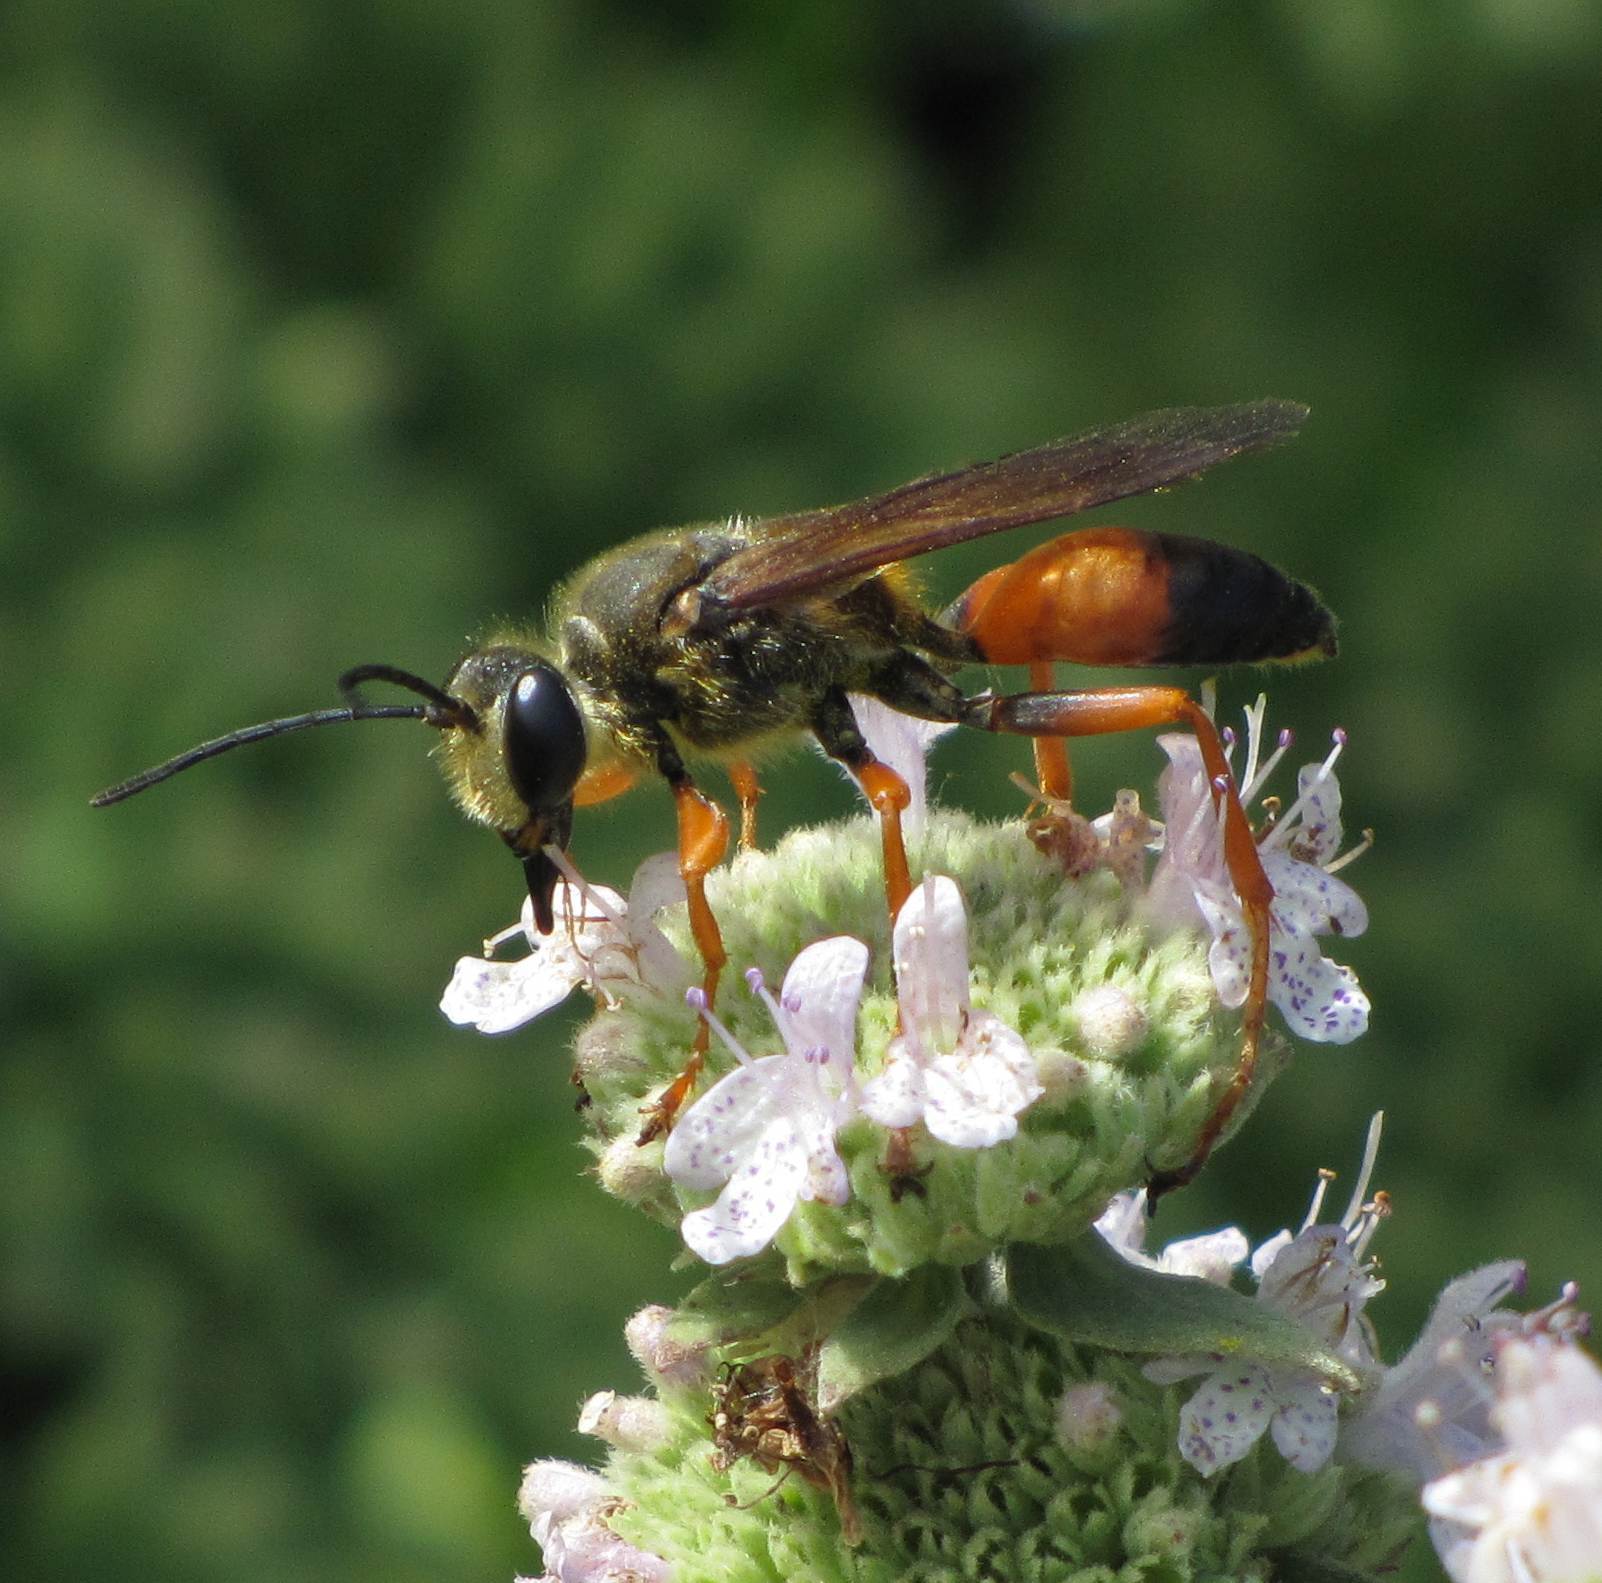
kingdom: Animalia
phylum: Arthropoda
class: Insecta
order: Hymenoptera
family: Sphecidae
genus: Sphex
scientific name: Sphex ichneumoneus
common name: Great golden digger wasp
